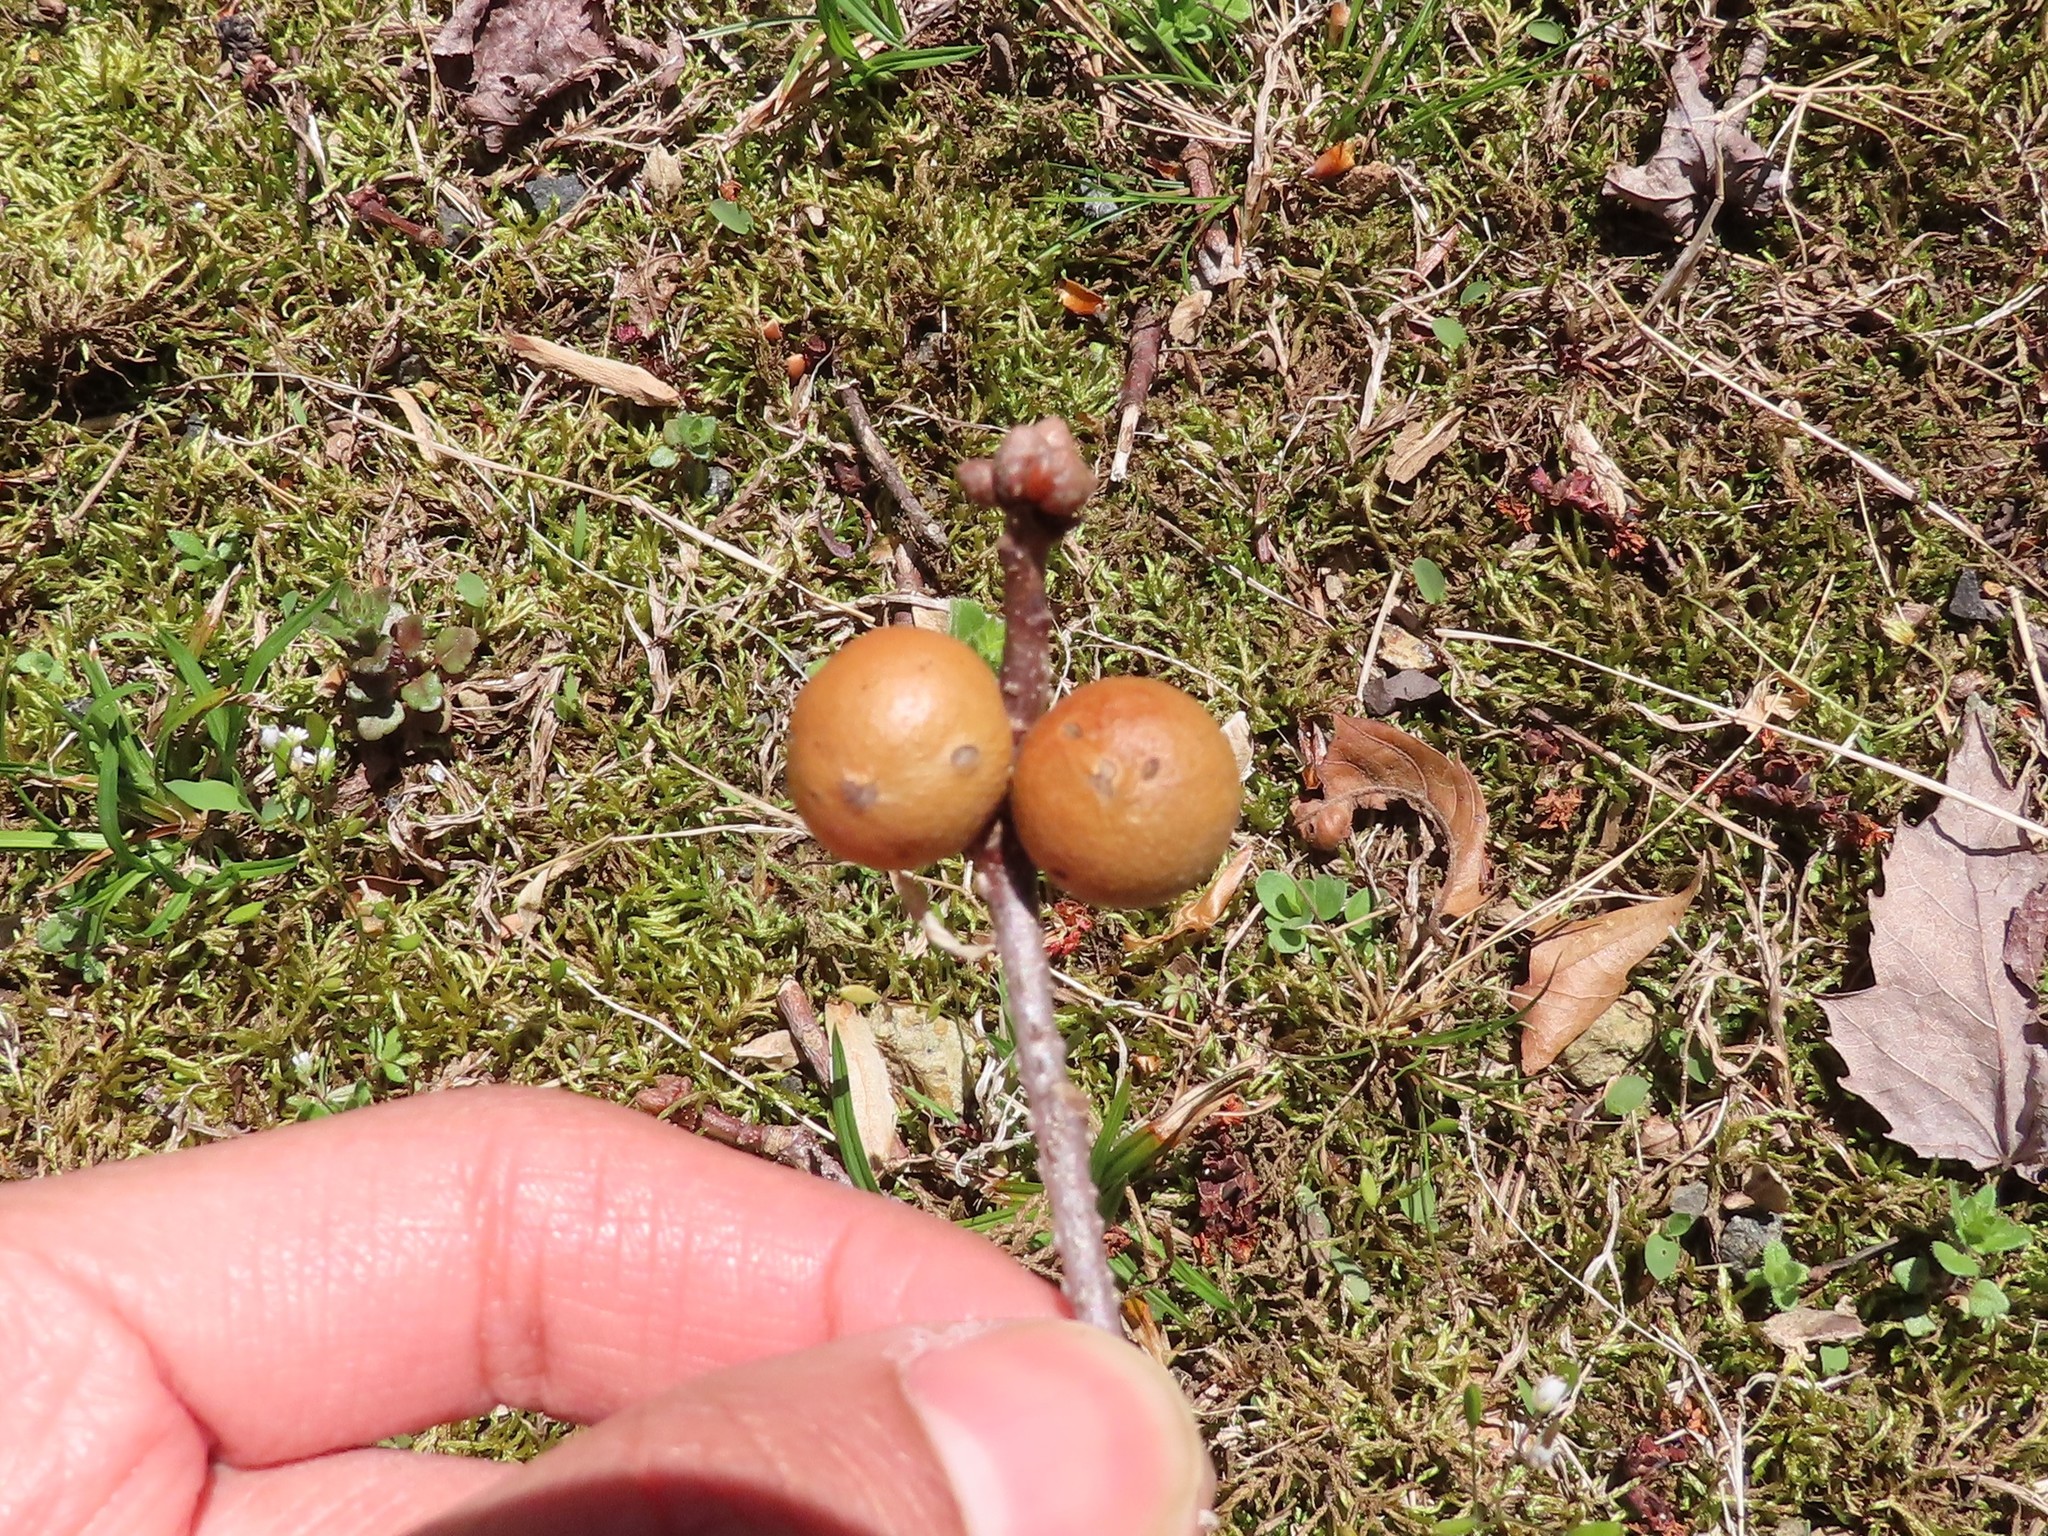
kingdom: Animalia
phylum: Arthropoda
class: Insecta
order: Hymenoptera
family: Cynipidae
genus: Disholcaspis
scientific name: Disholcaspis quercusglobulus
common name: Round bullet gall wasp
